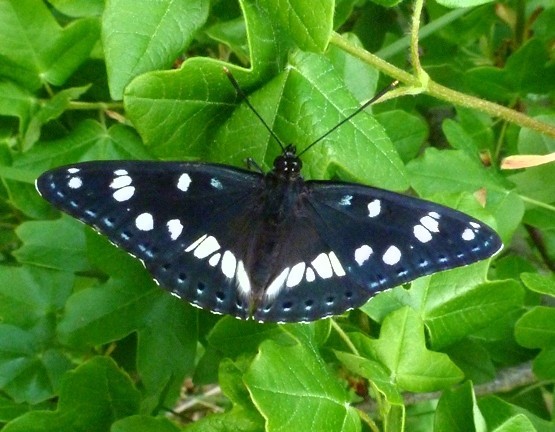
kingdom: Animalia
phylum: Arthropoda
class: Insecta
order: Lepidoptera
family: Nymphalidae
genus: Limenitis
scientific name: Limenitis reducta
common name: Southern white admiral
